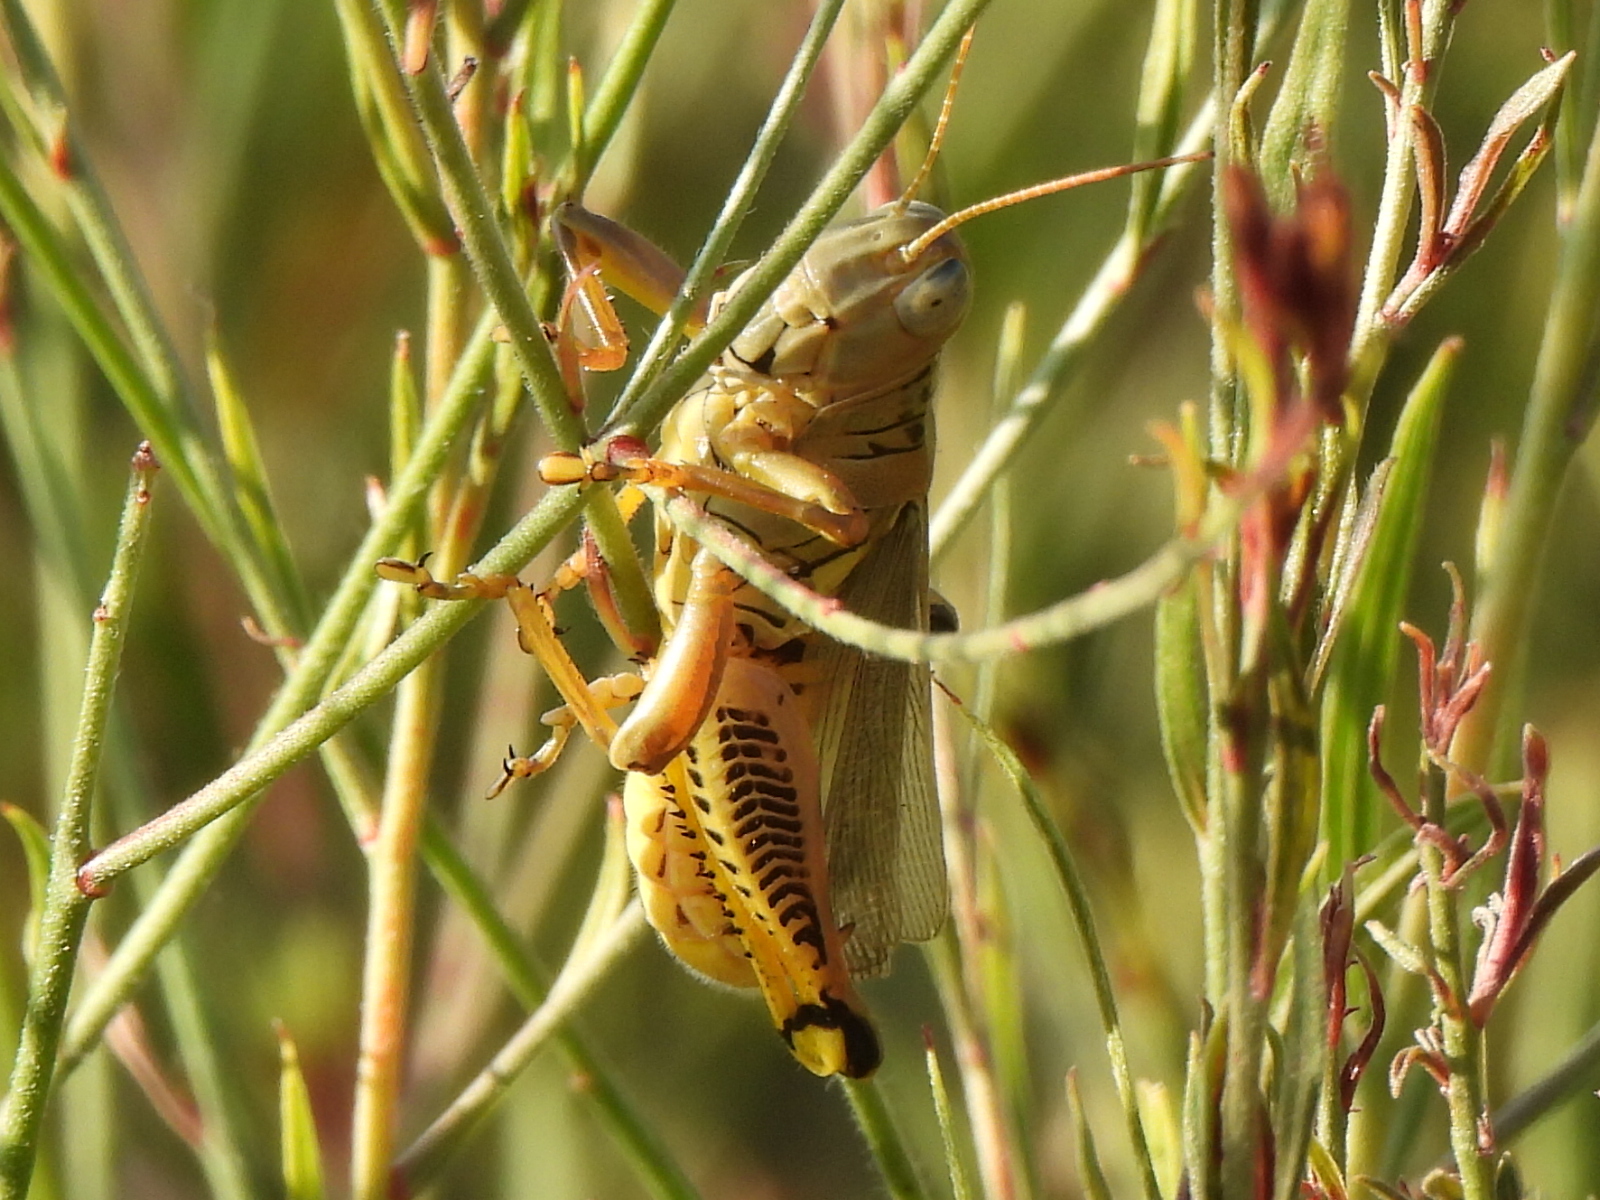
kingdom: Animalia
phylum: Arthropoda
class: Insecta
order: Orthoptera
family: Acrididae
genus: Melanoplus
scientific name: Melanoplus differentialis
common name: Differential grasshopper
